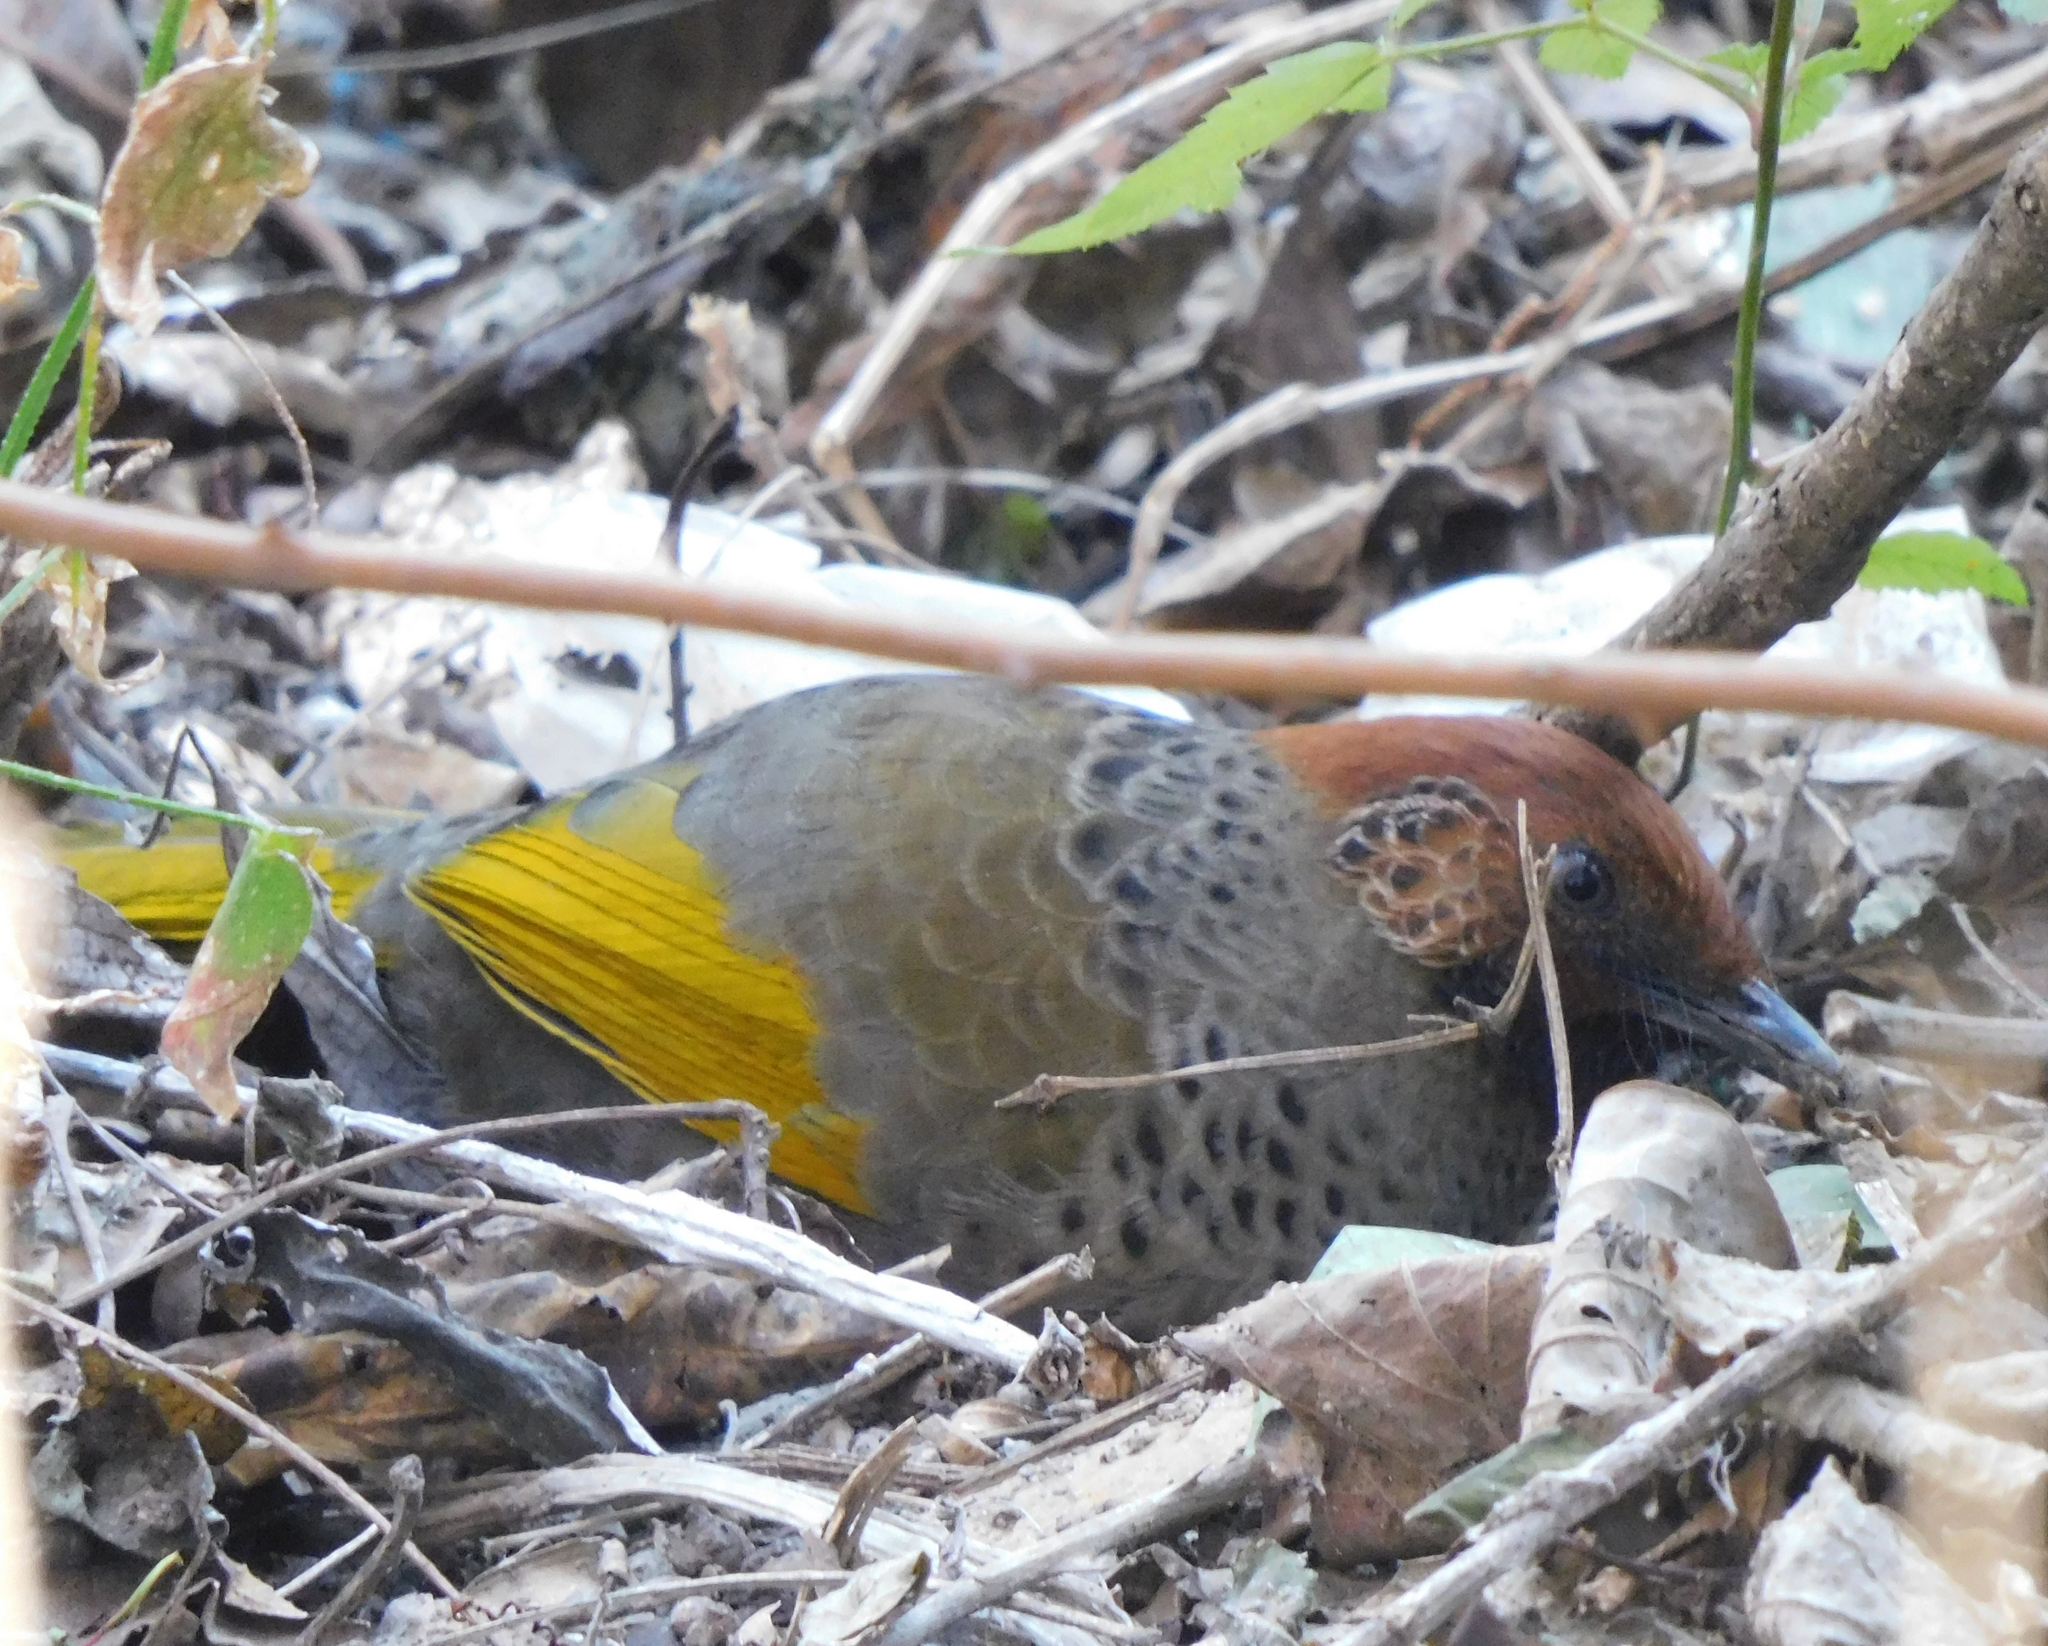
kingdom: Animalia
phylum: Chordata
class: Aves
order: Passeriformes
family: Leiothrichidae
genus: Trochalopteron
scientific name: Trochalopteron erythrocephalum
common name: Chestnut-crowned laughingthrush
